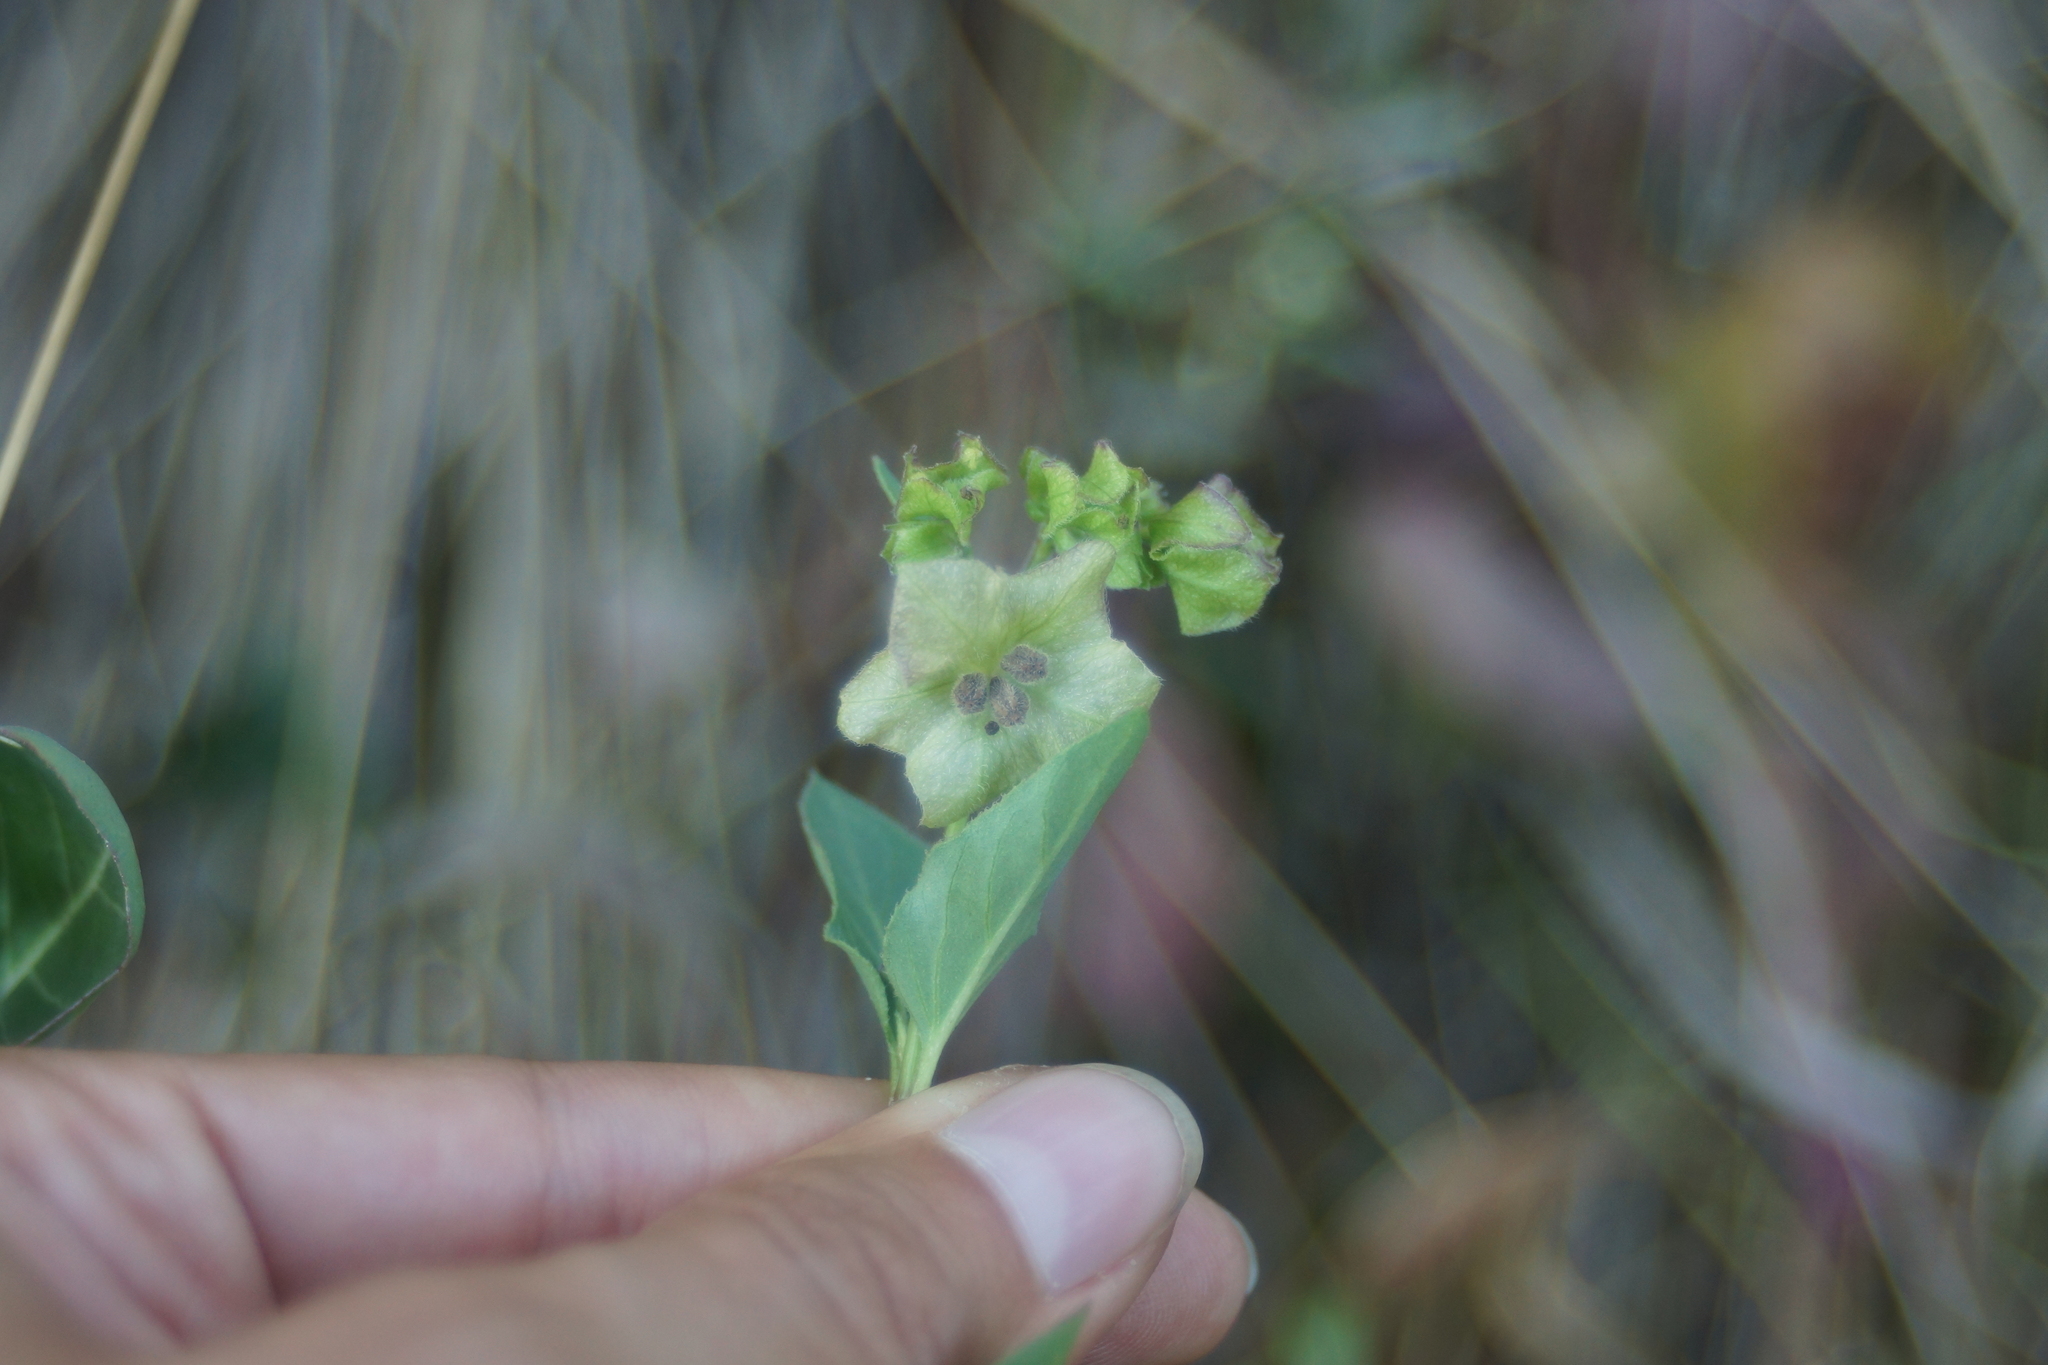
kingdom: Plantae
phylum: Tracheophyta
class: Magnoliopsida
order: Caryophyllales
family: Nyctaginaceae
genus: Mirabilis
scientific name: Mirabilis nyctaginea
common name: Umbrella wort
